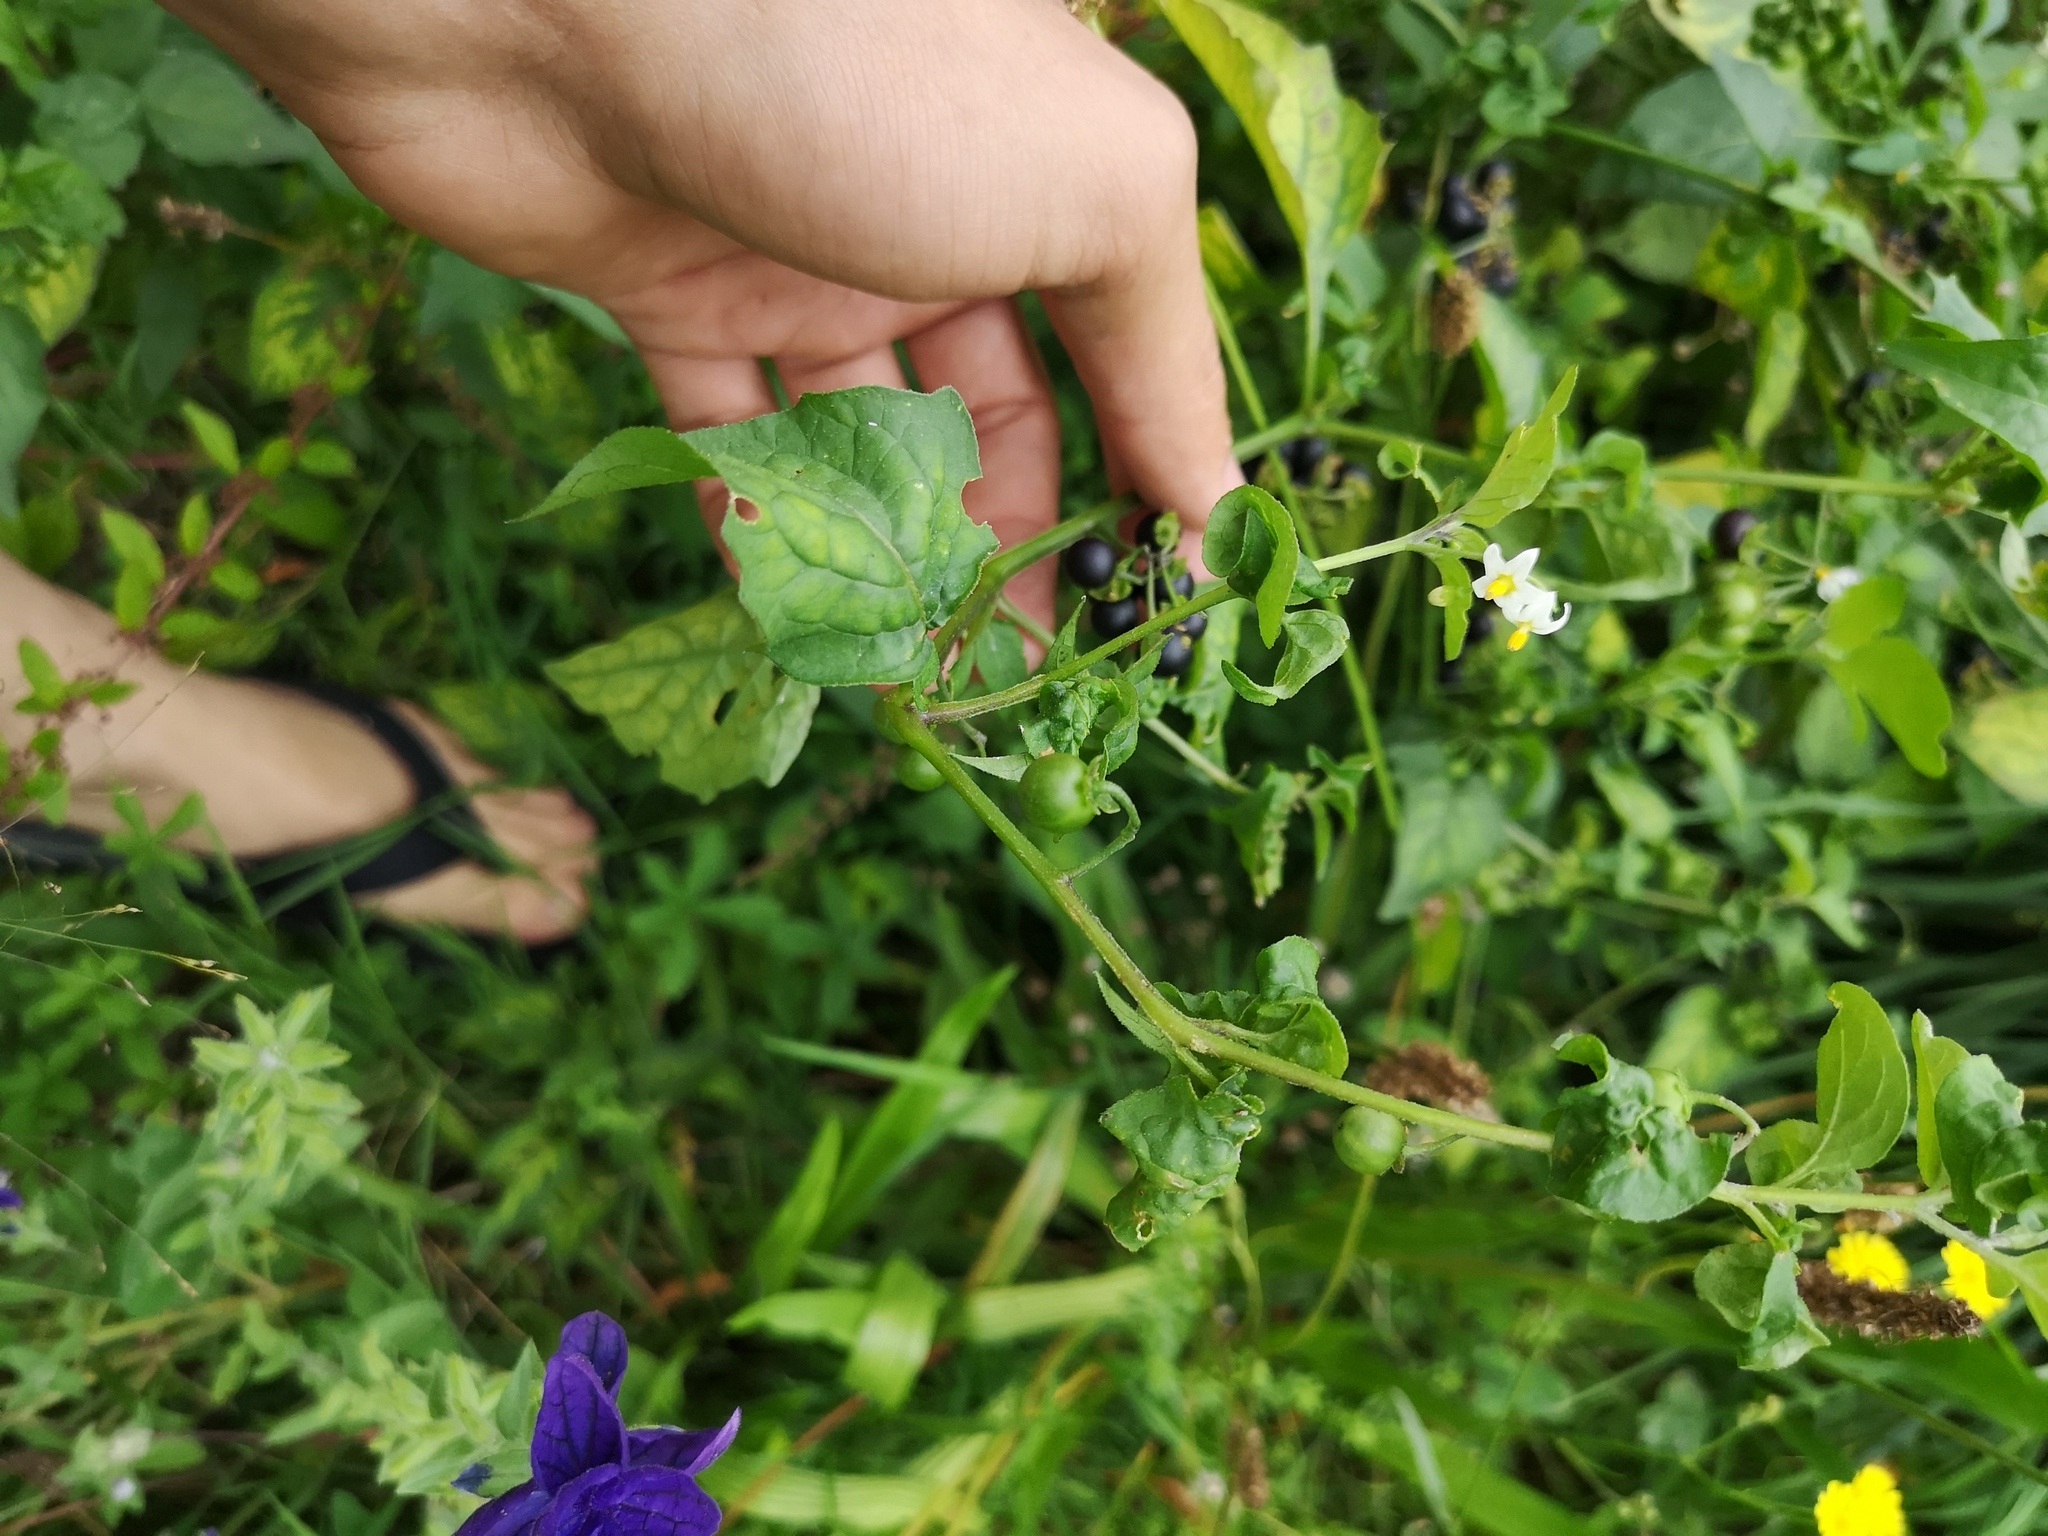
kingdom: Plantae
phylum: Tracheophyta
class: Magnoliopsida
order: Solanales
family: Solanaceae
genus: Solanum
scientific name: Solanum nigrum
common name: Black nightshade
